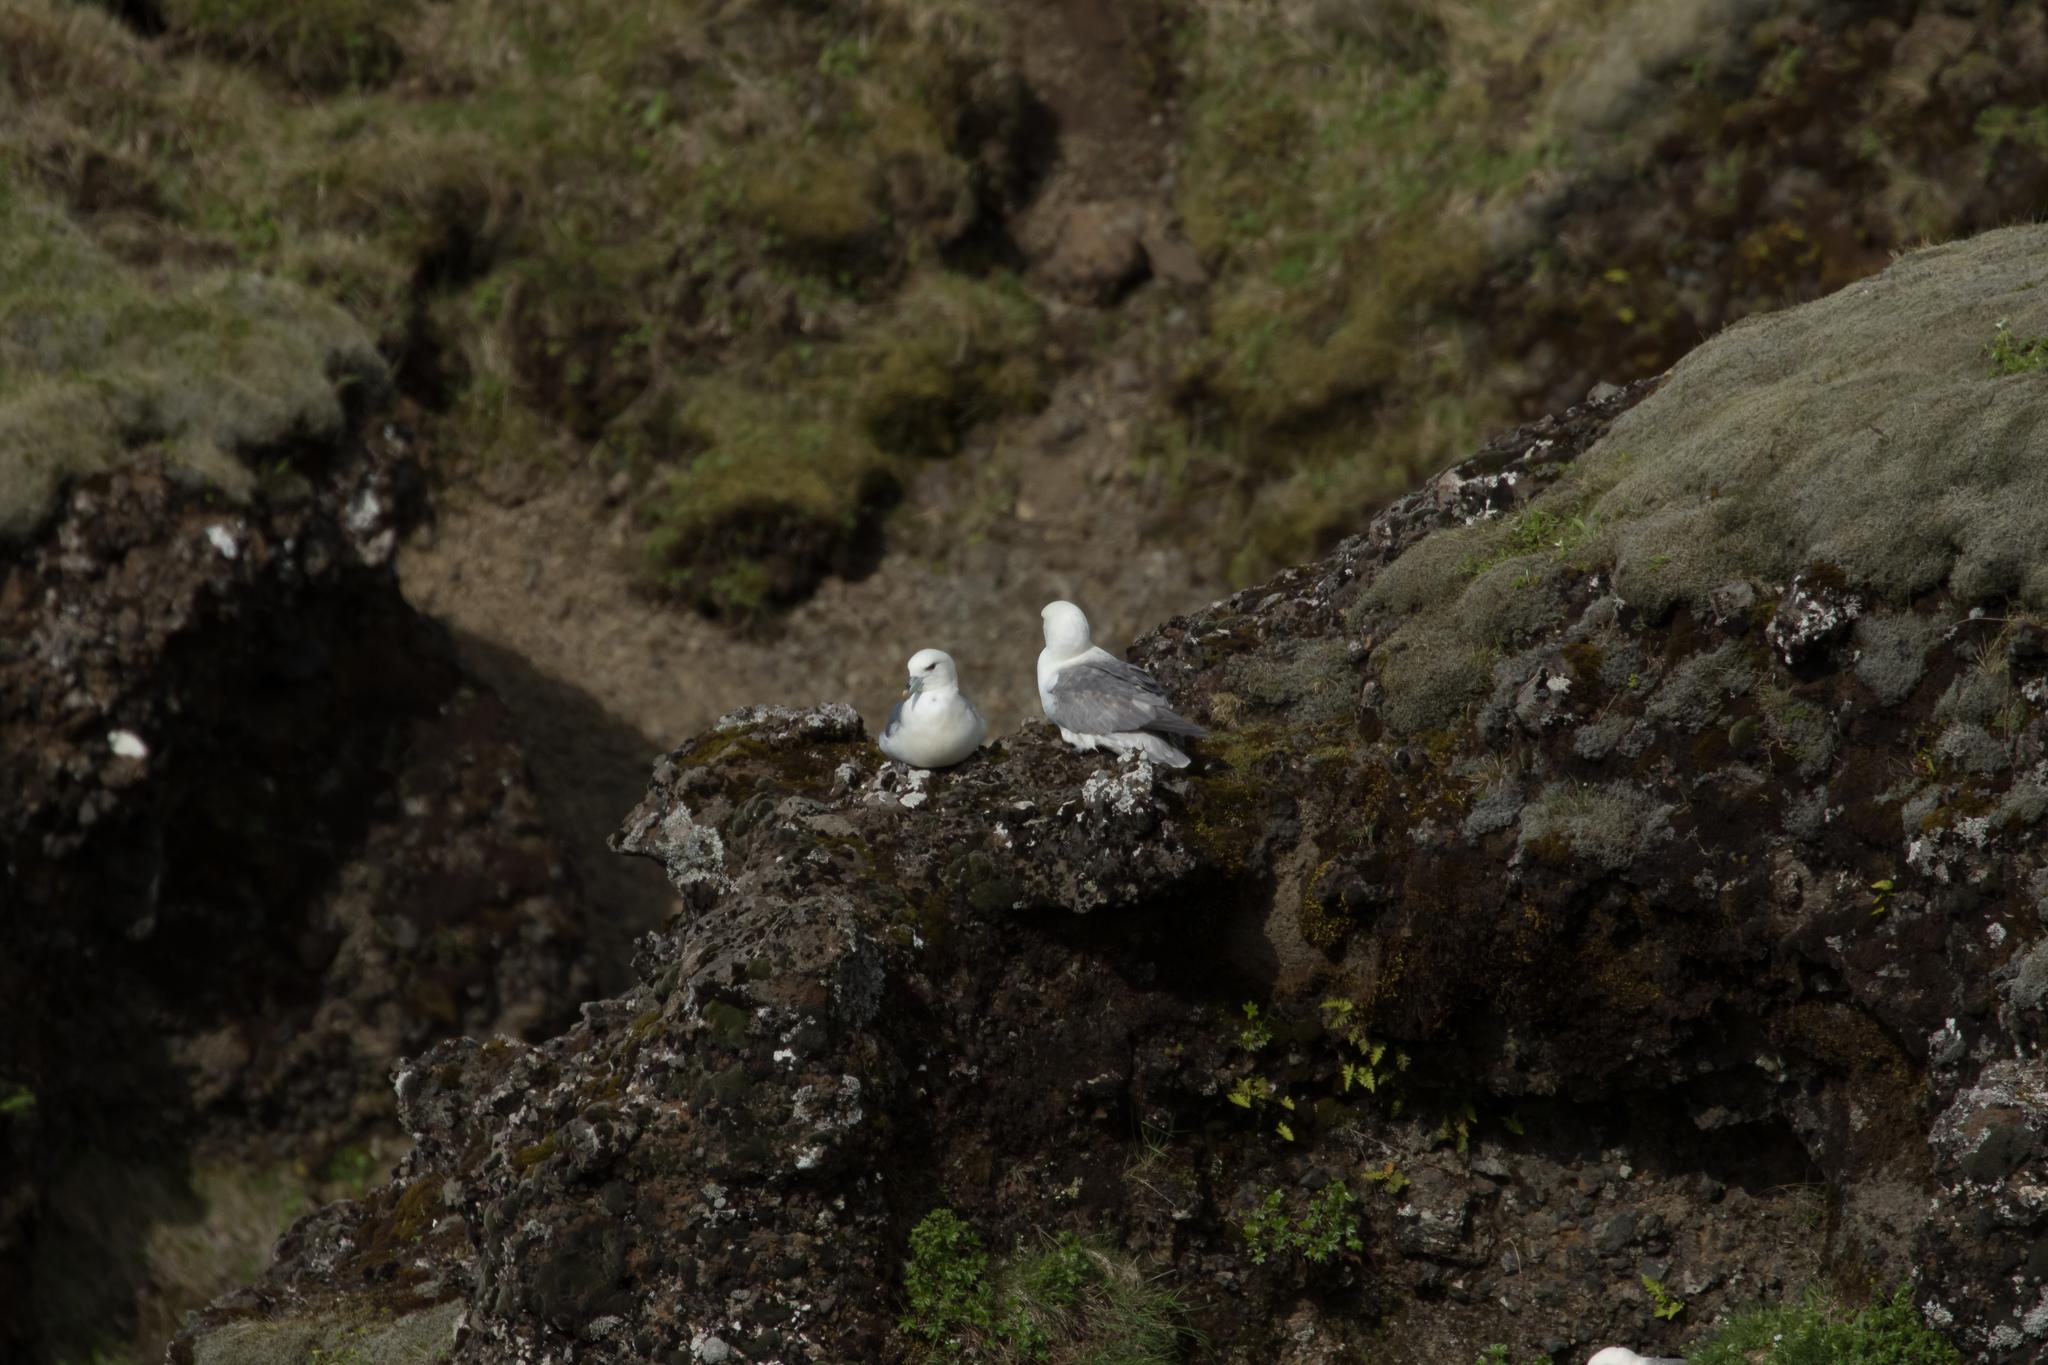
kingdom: Animalia
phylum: Chordata
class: Aves
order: Procellariiformes
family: Procellariidae
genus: Fulmarus
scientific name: Fulmarus glacialis
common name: Northern fulmar
